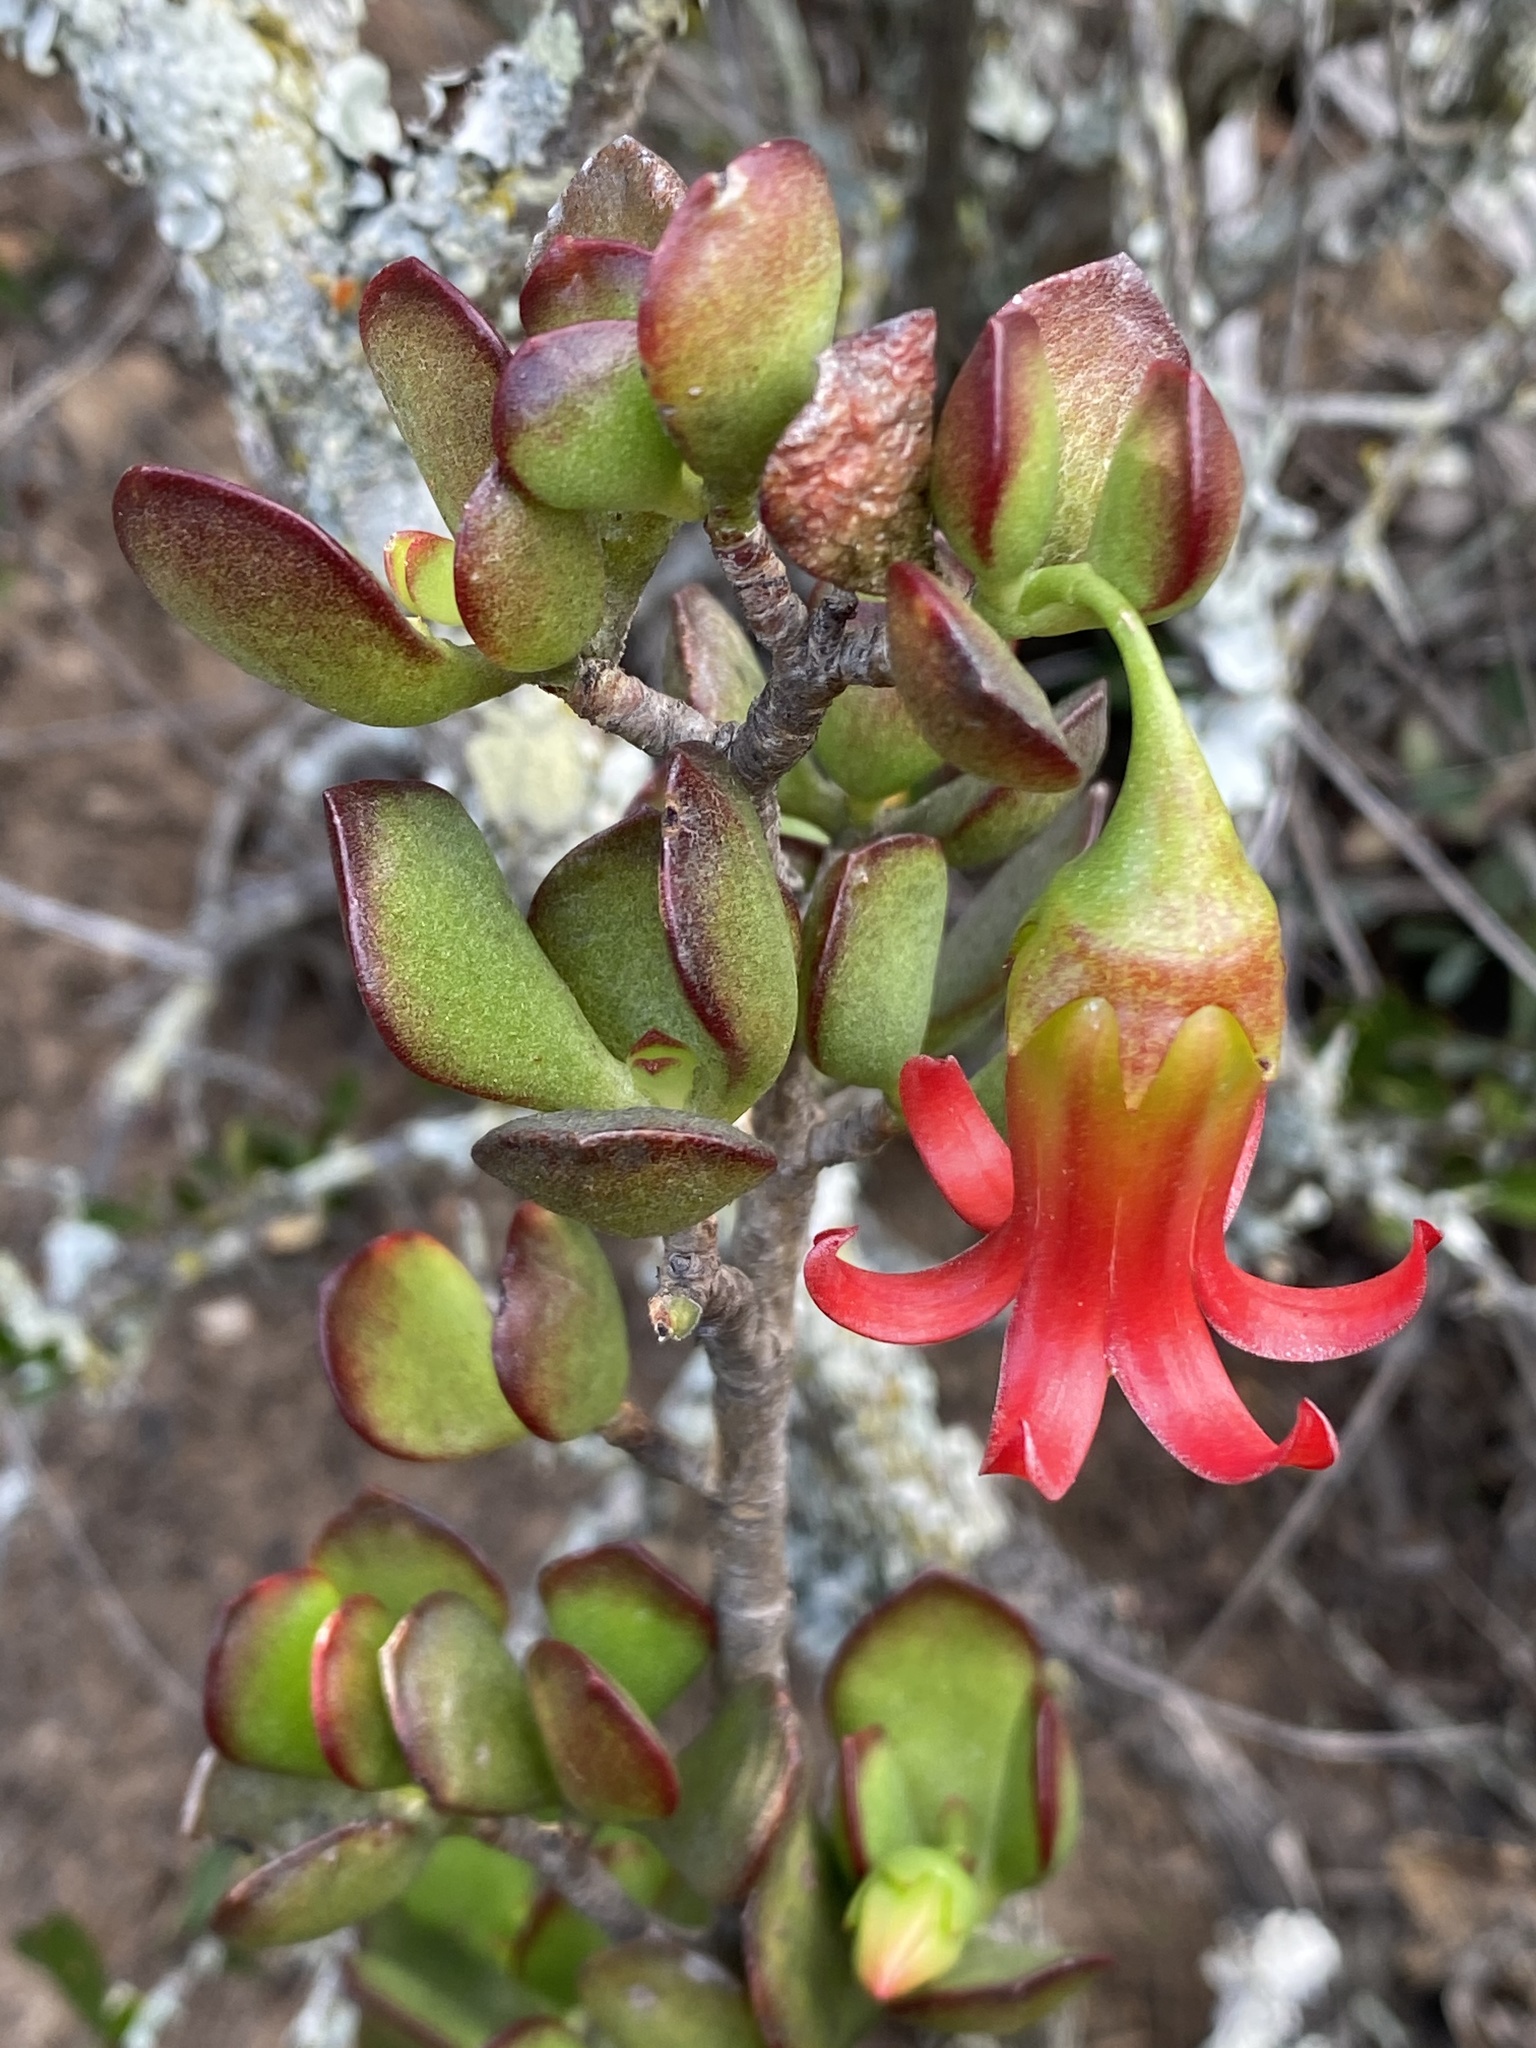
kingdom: Plantae
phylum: Tracheophyta
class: Magnoliopsida
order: Saxifragales
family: Crassulaceae
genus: Cotyledon
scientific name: Cotyledon woodii
